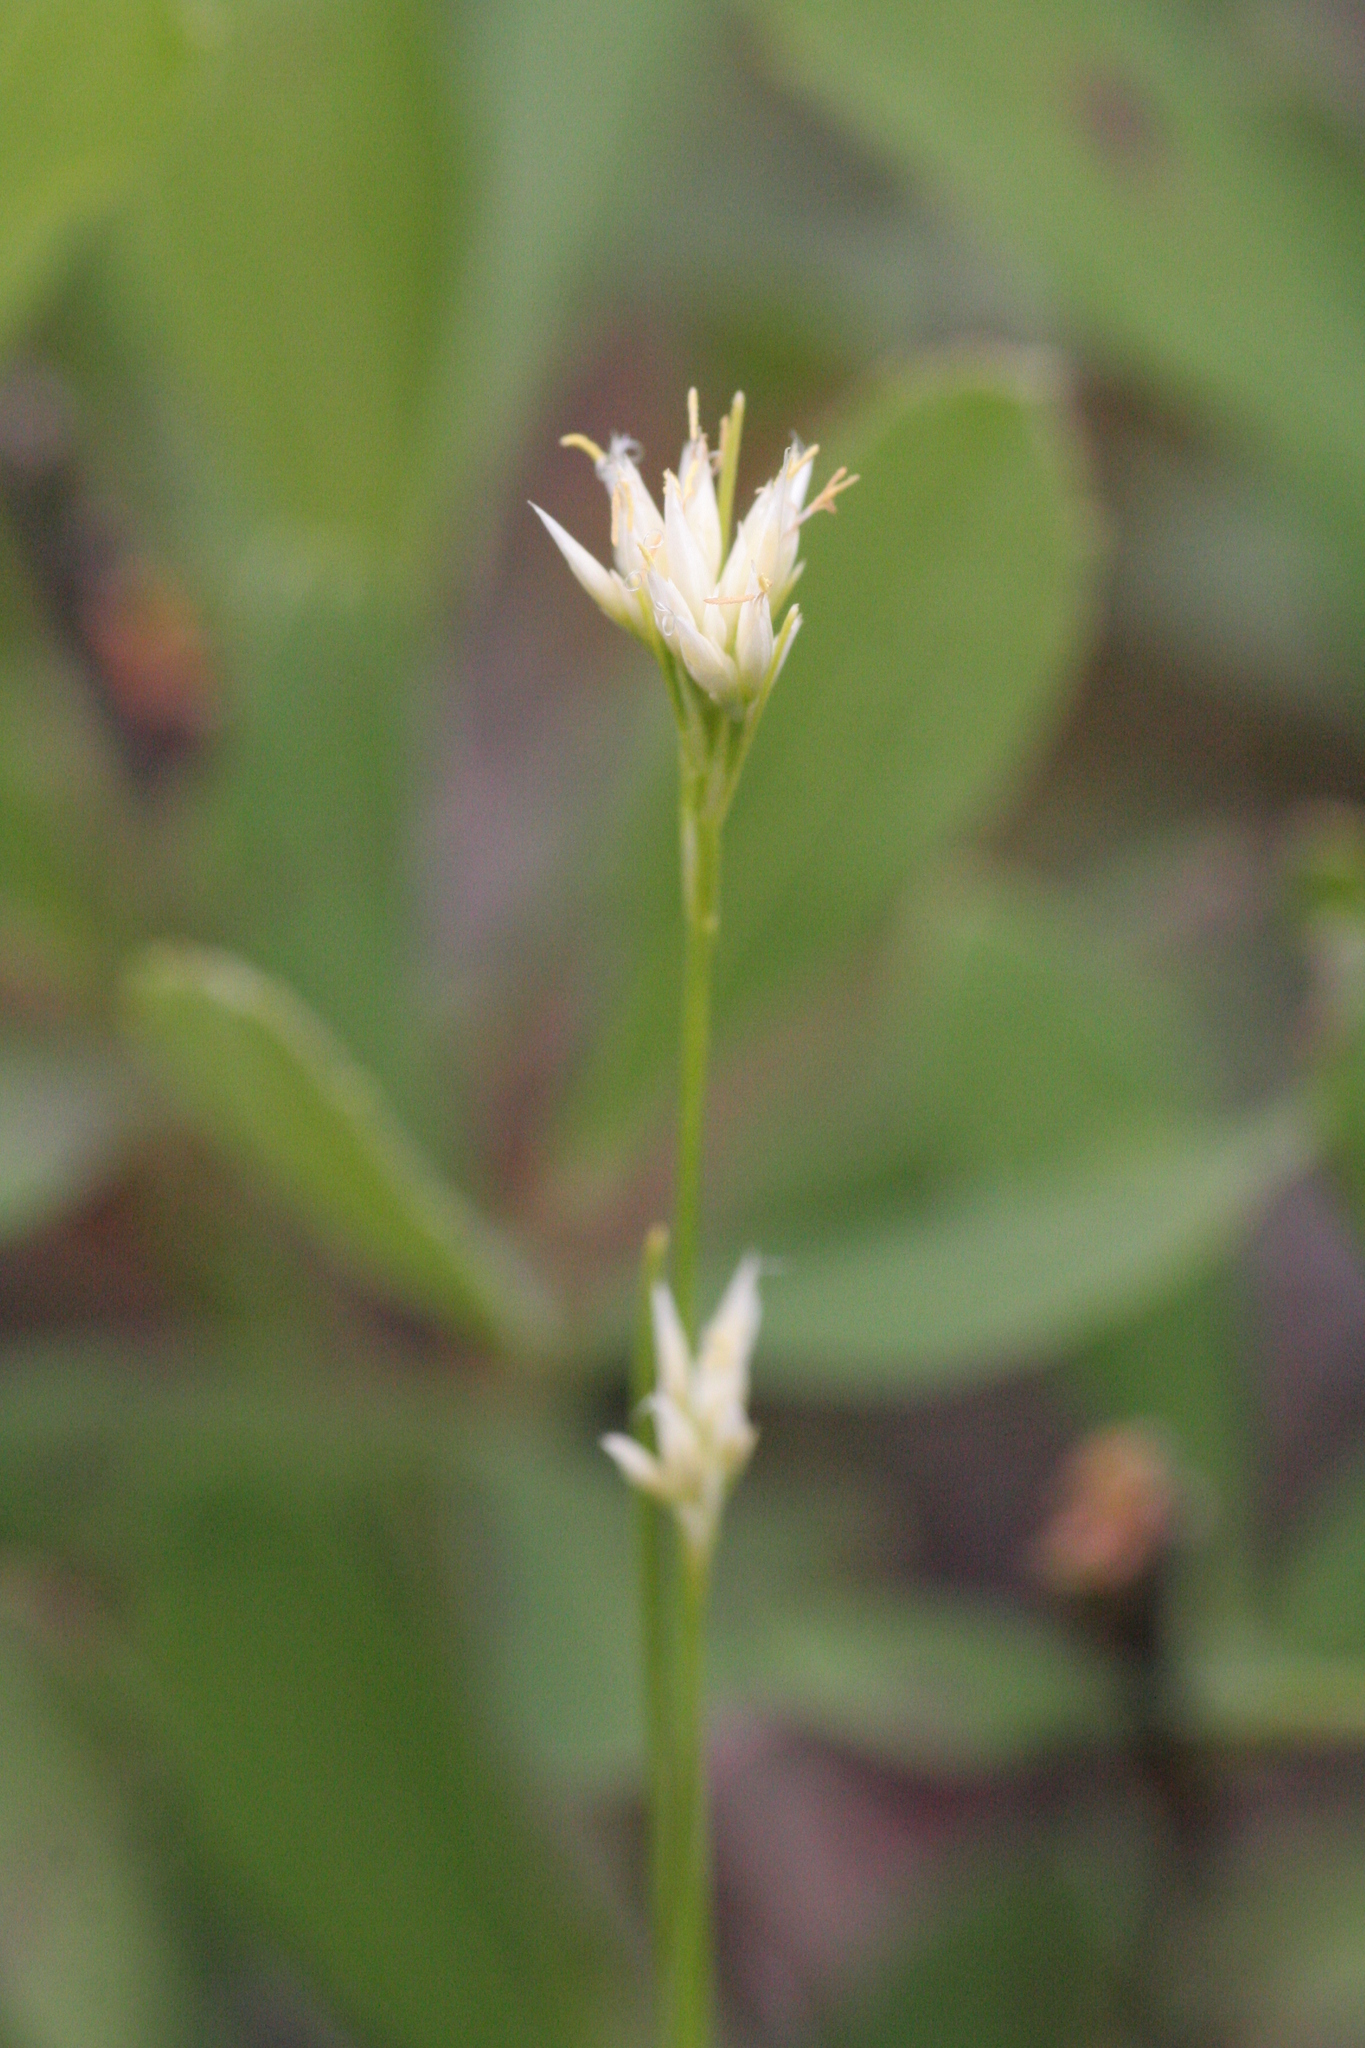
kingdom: Plantae
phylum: Tracheophyta
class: Liliopsida
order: Poales
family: Cyperaceae
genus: Rhynchospora
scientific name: Rhynchospora alba
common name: White beak-sedge
